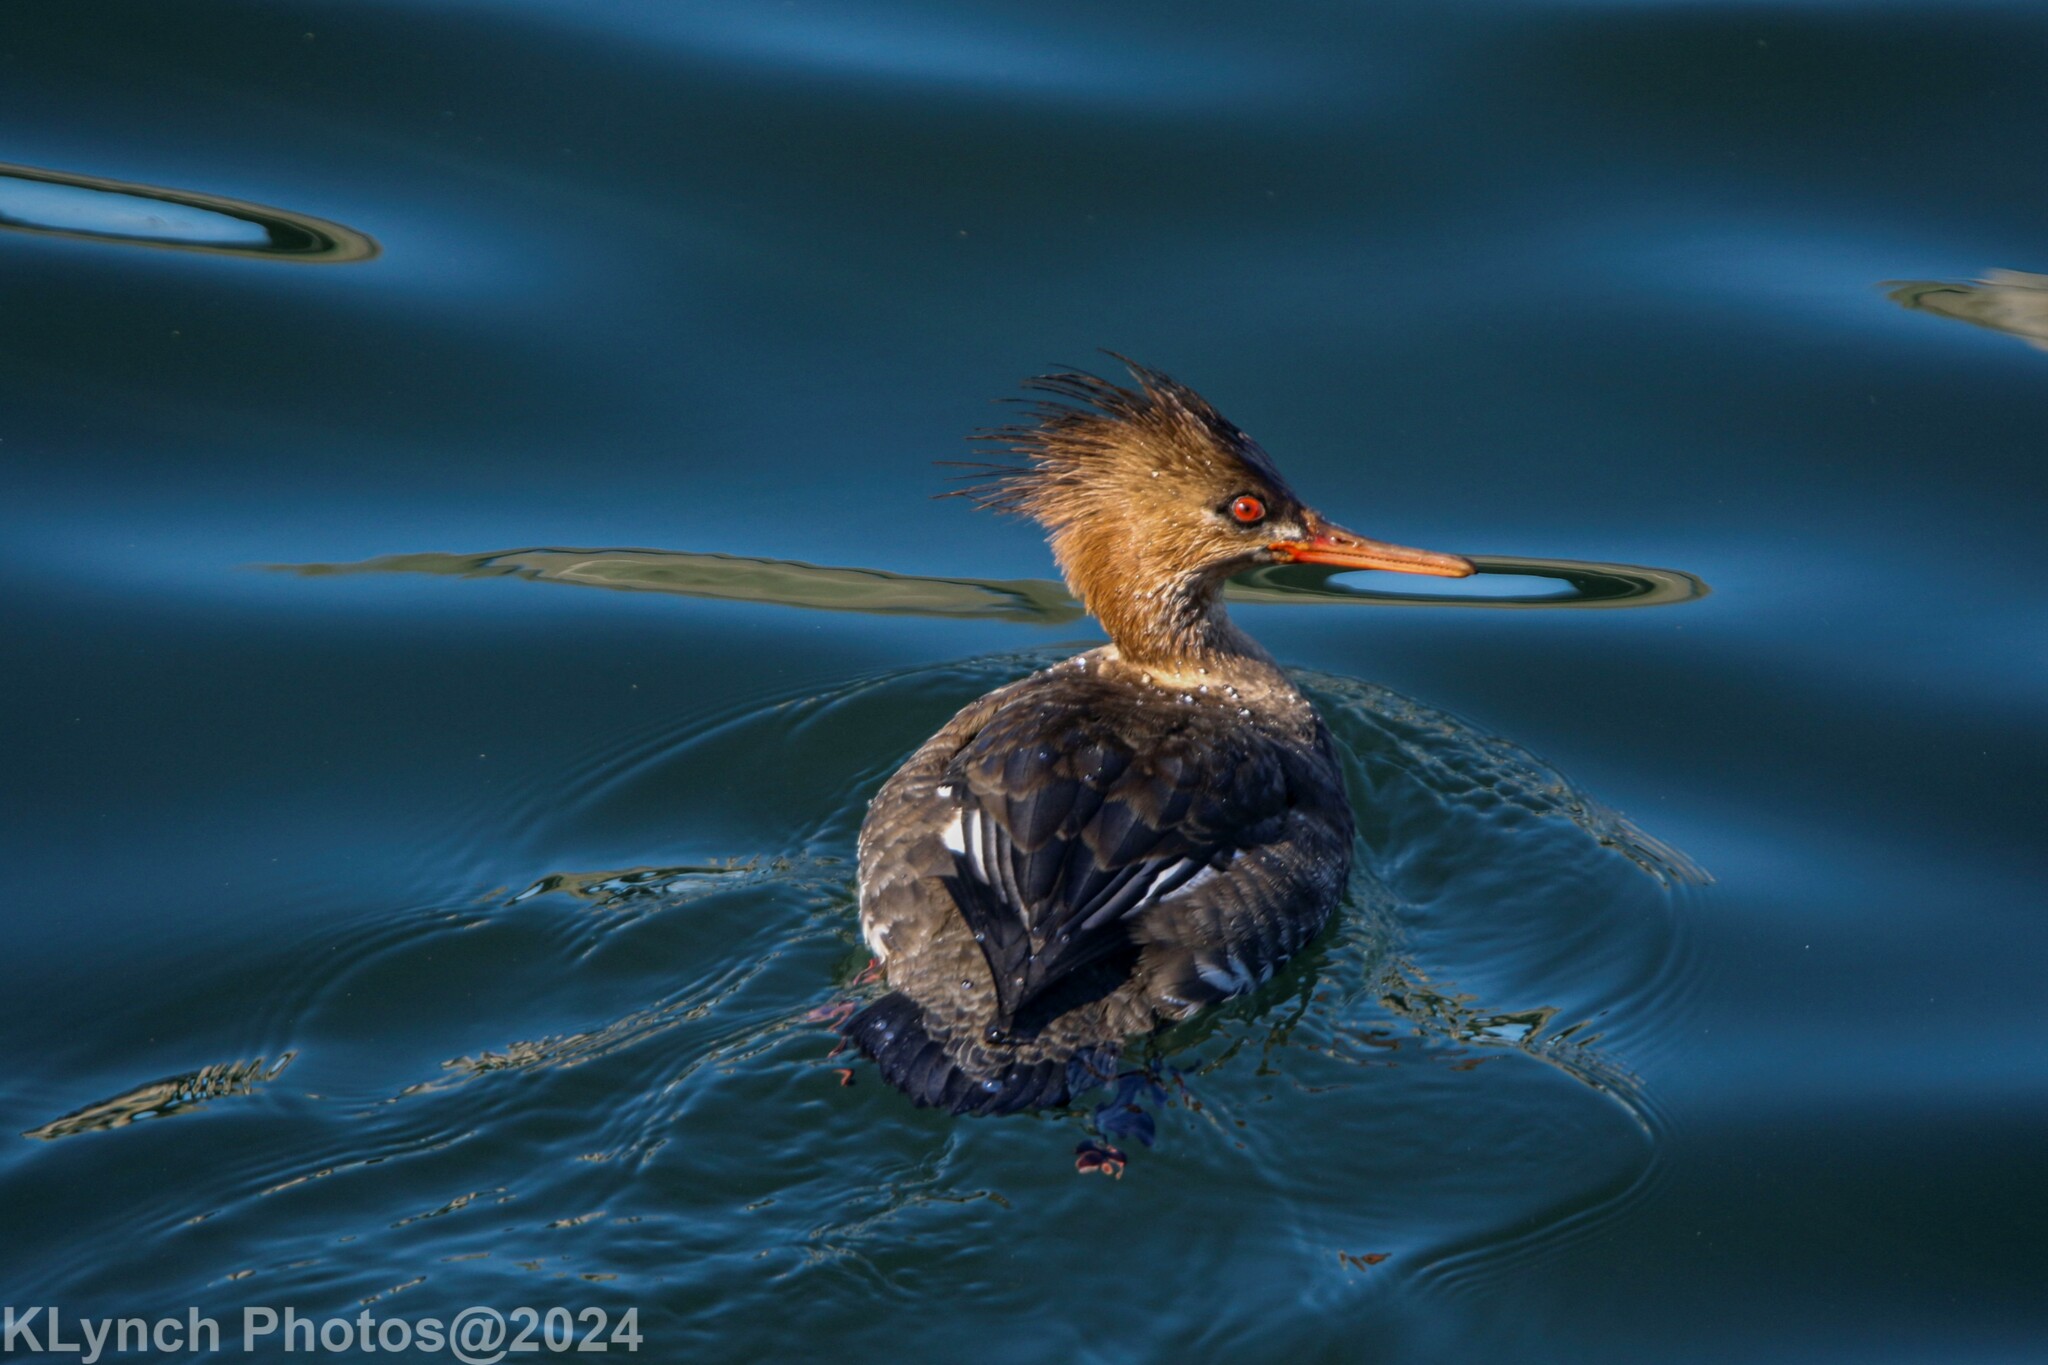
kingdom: Animalia
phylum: Chordata
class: Aves
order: Anseriformes
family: Anatidae
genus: Mergus
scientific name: Mergus serrator
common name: Red-breasted merganser
